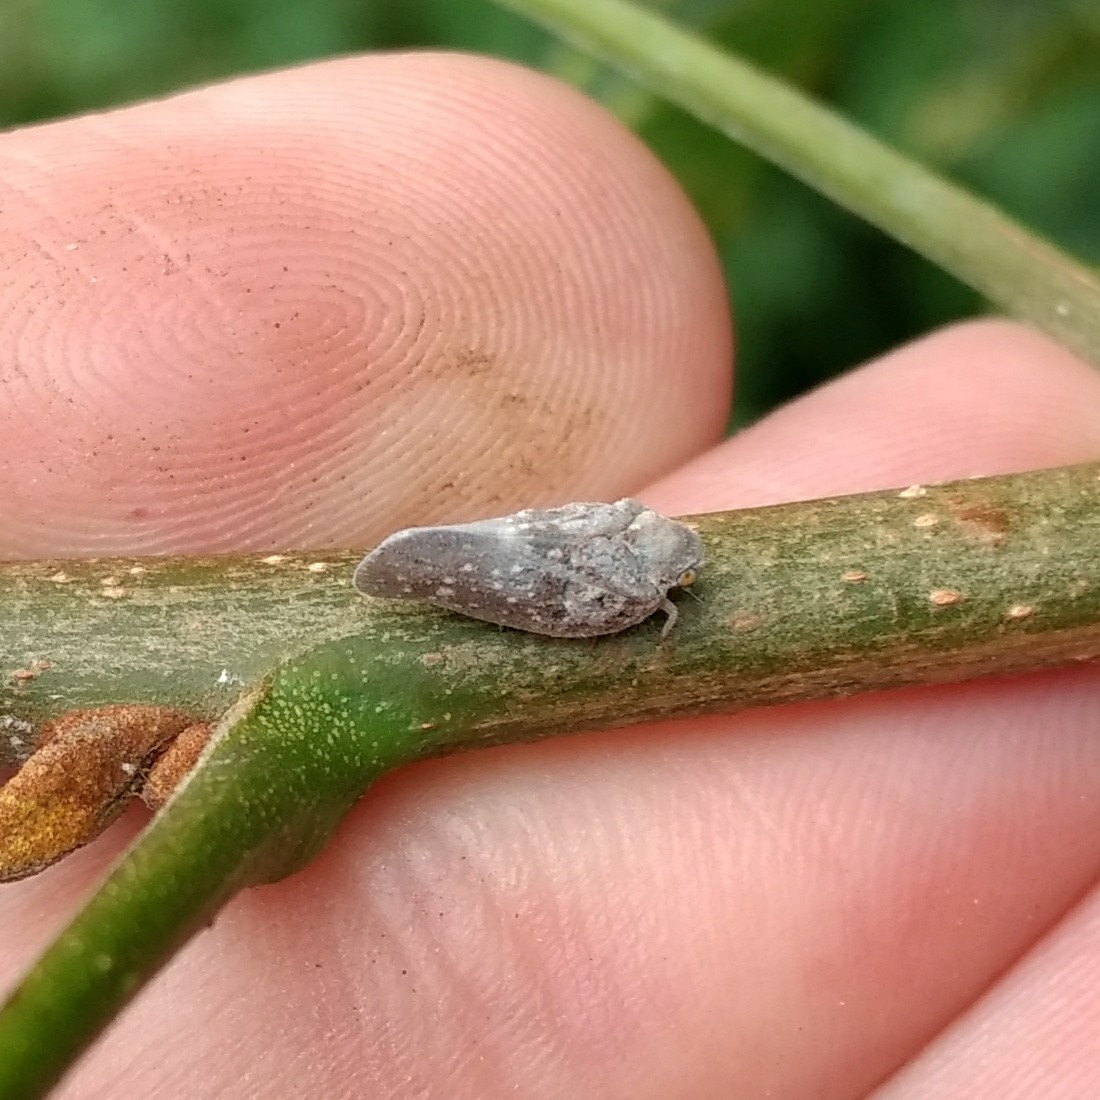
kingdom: Animalia
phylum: Arthropoda
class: Insecta
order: Hemiptera
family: Flatidae
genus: Metcalfa
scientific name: Metcalfa pruinosa
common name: Citrus flatid planthopper
